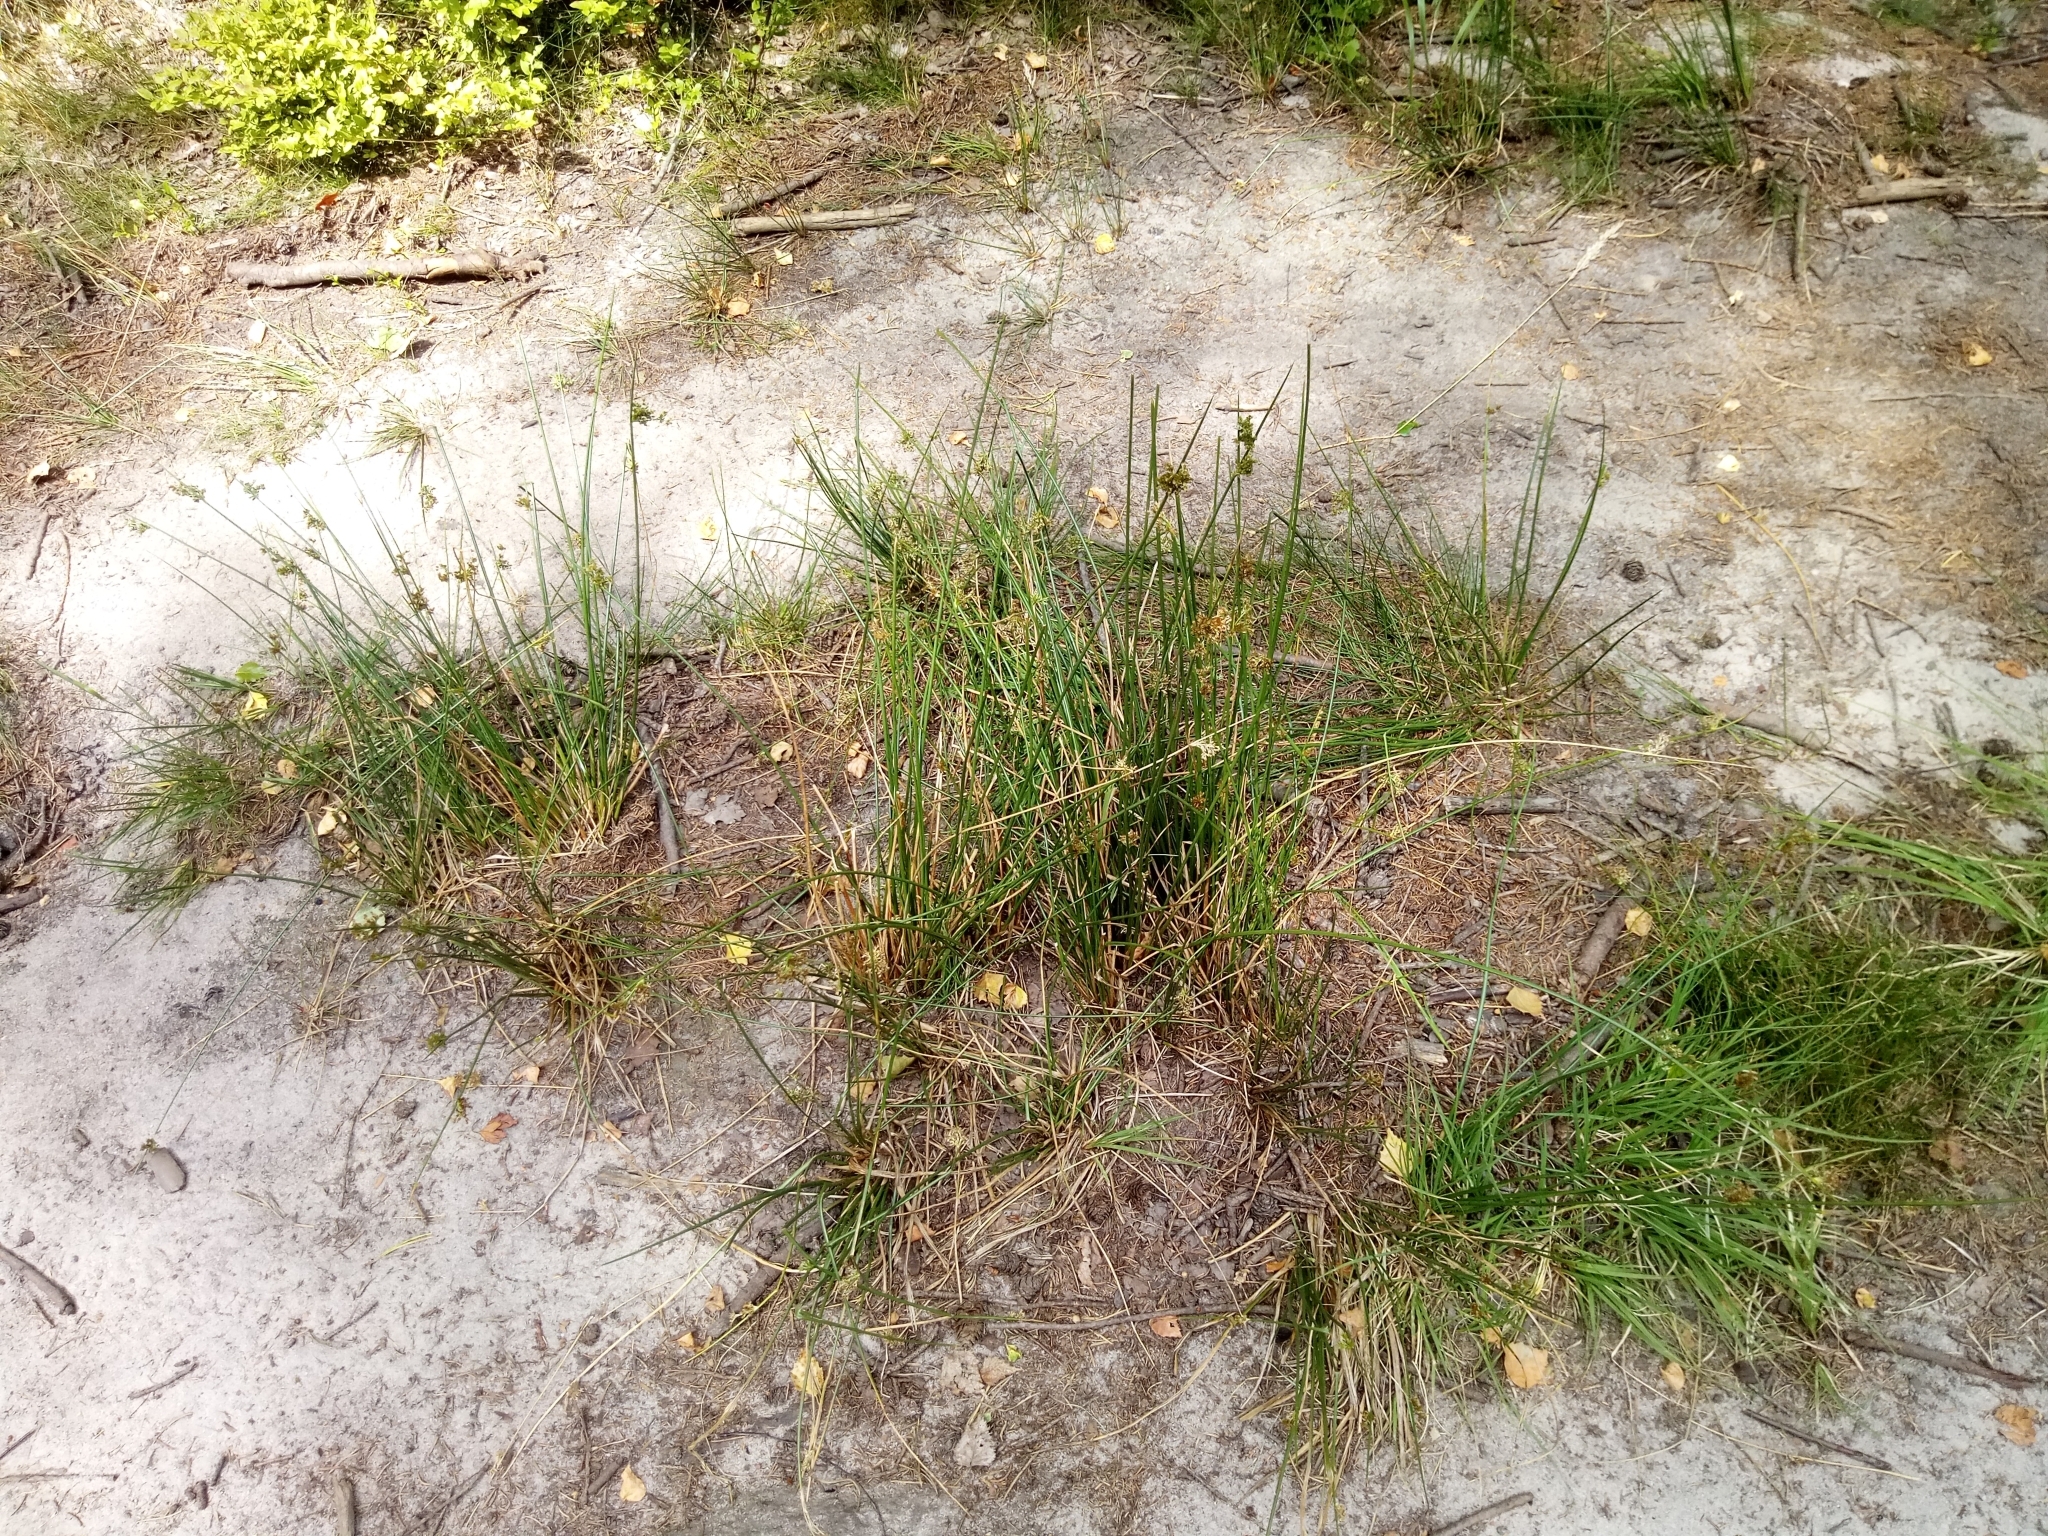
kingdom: Plantae
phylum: Tracheophyta
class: Liliopsida
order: Poales
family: Juncaceae
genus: Juncus
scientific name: Juncus effusus
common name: Soft rush
